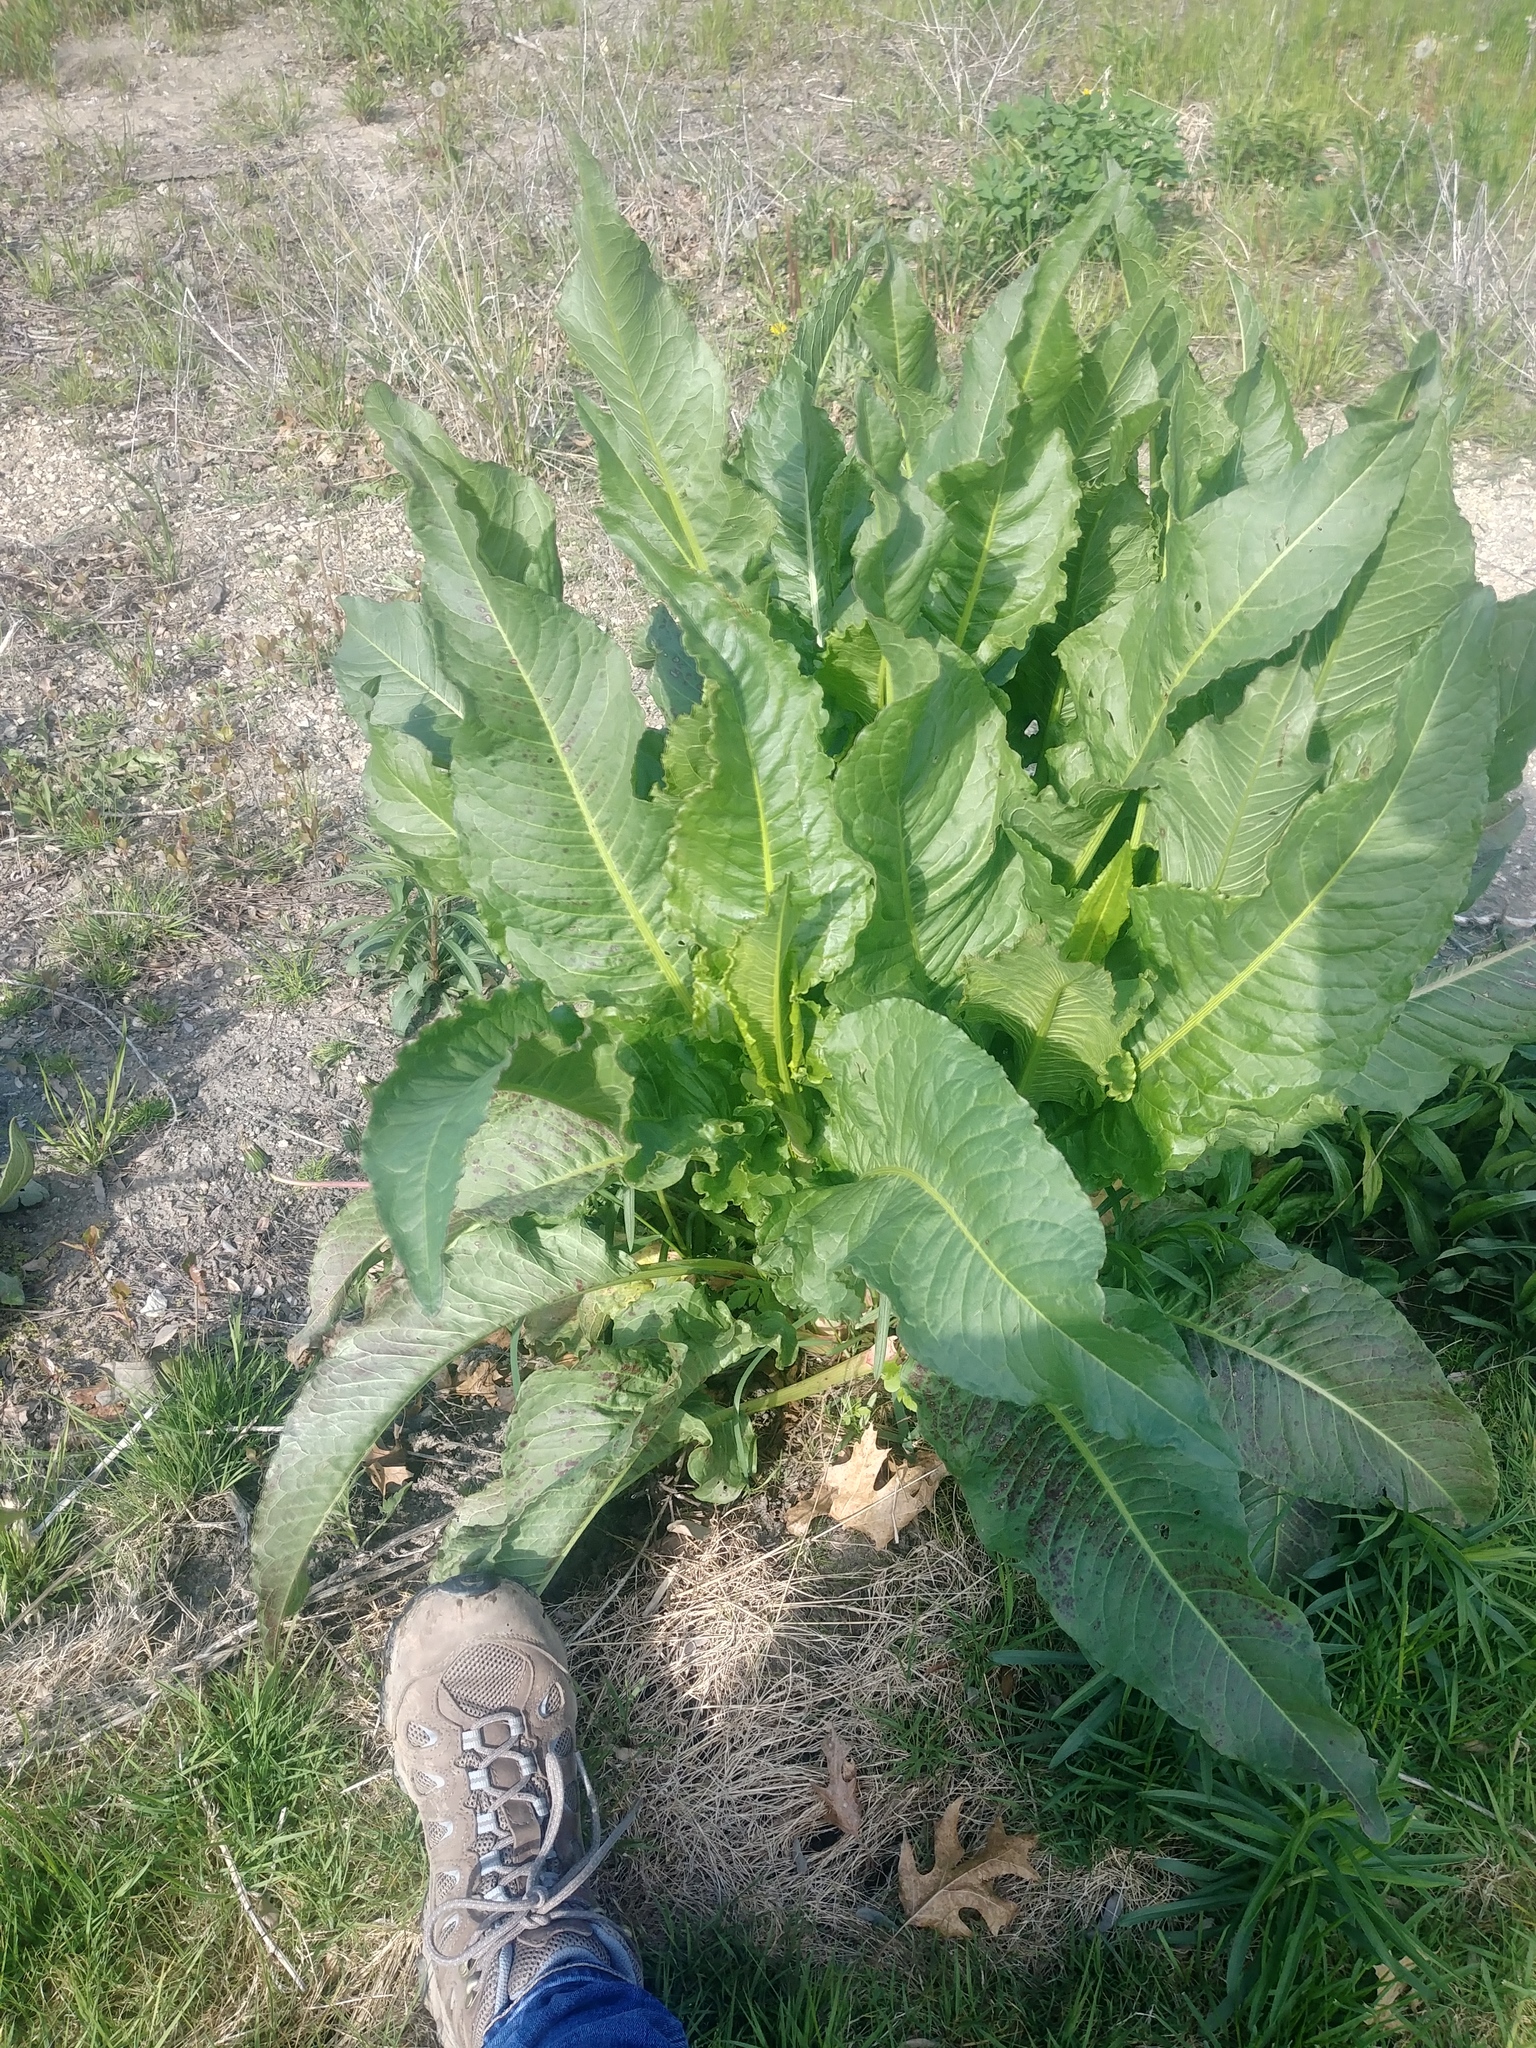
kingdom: Plantae
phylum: Tracheophyta
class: Magnoliopsida
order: Caryophyllales
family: Polygonaceae
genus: Rumex
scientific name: Rumex crispus
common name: Curled dock
